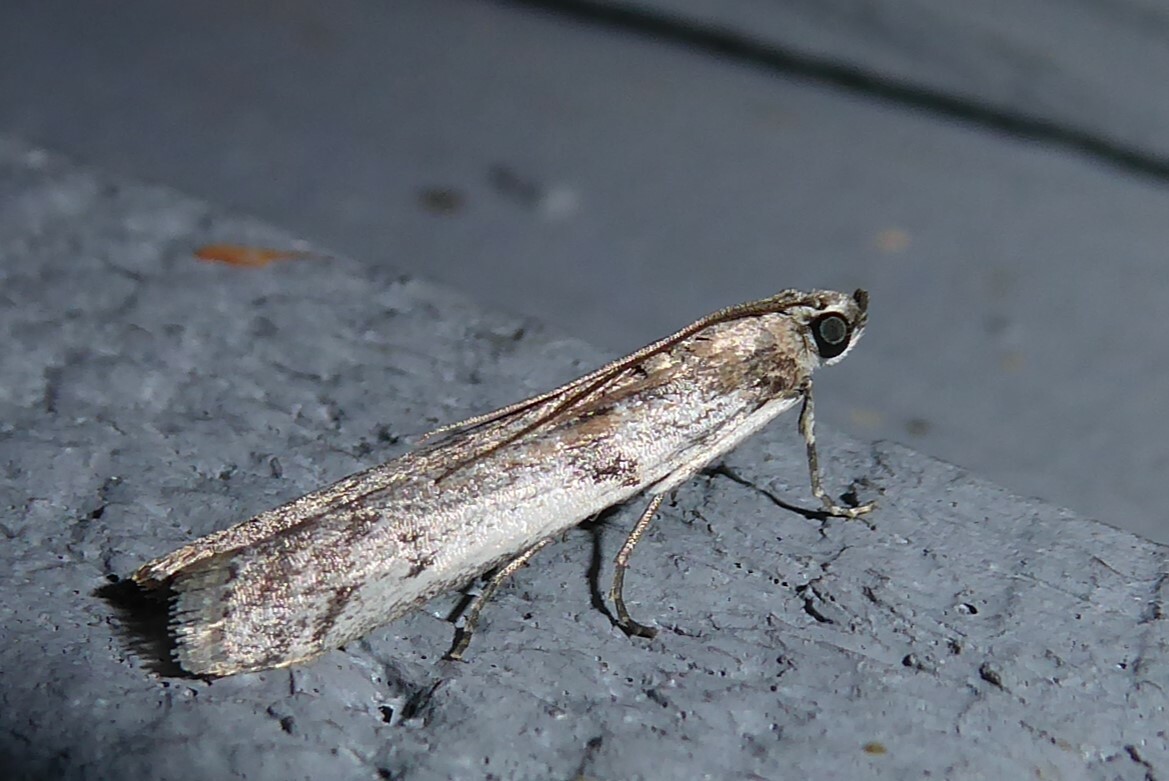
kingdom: Animalia
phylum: Arthropoda
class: Insecta
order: Lepidoptera
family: Pyralidae
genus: Patagoniodes
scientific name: Patagoniodes farinaria
